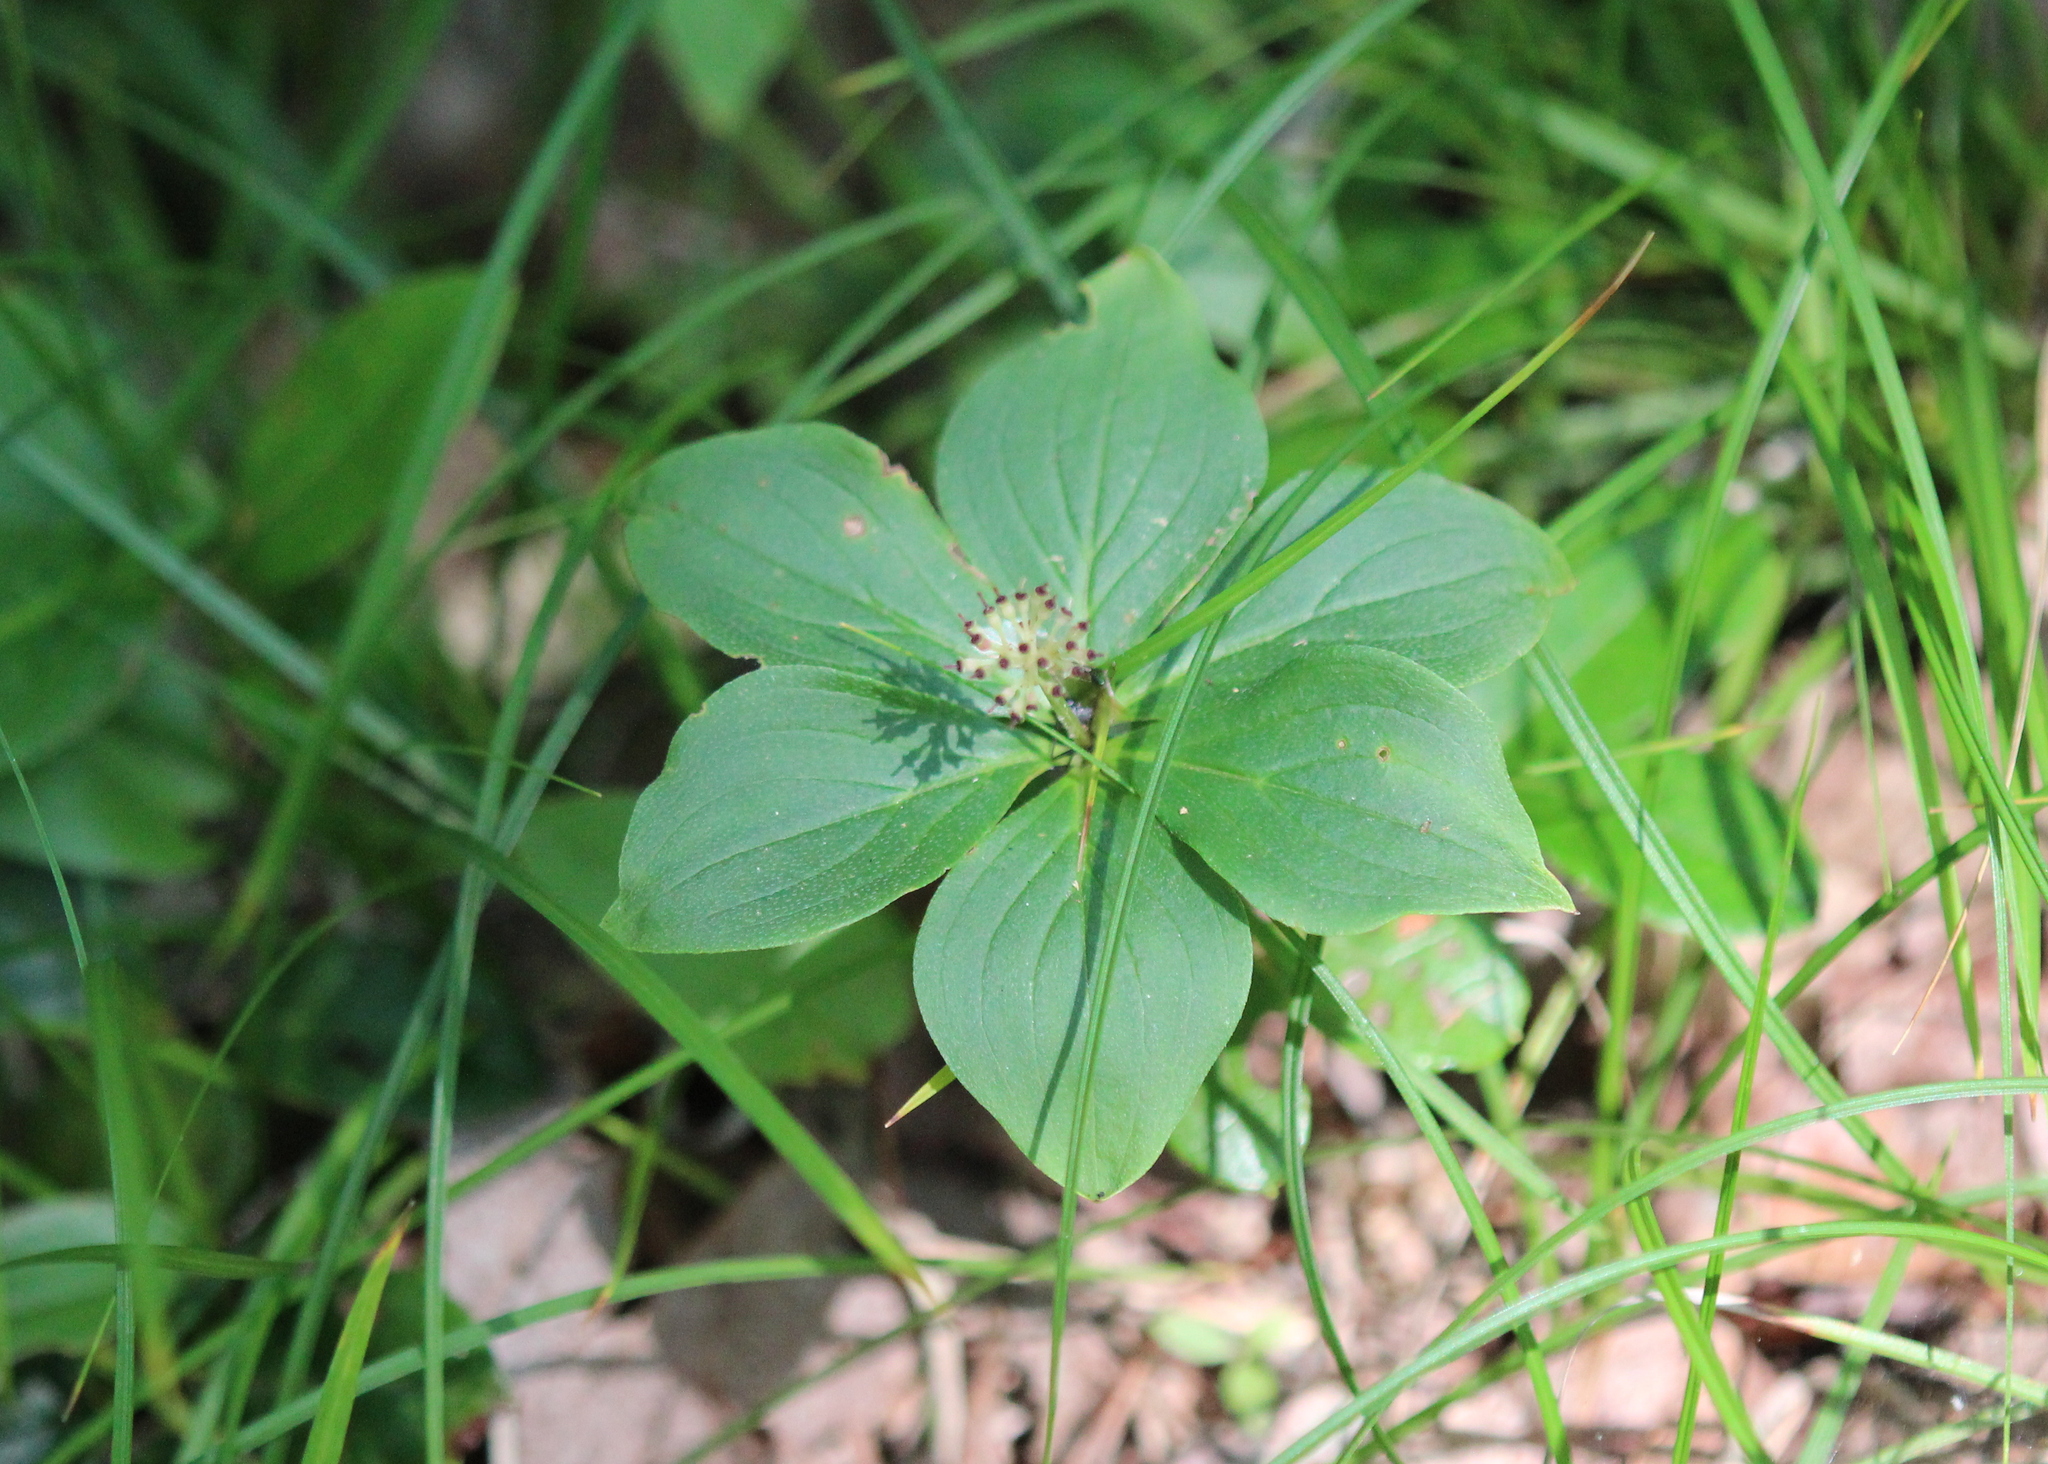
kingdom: Plantae
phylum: Tracheophyta
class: Magnoliopsida
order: Cornales
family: Cornaceae
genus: Cornus
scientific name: Cornus canadensis
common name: Creeping dogwood
